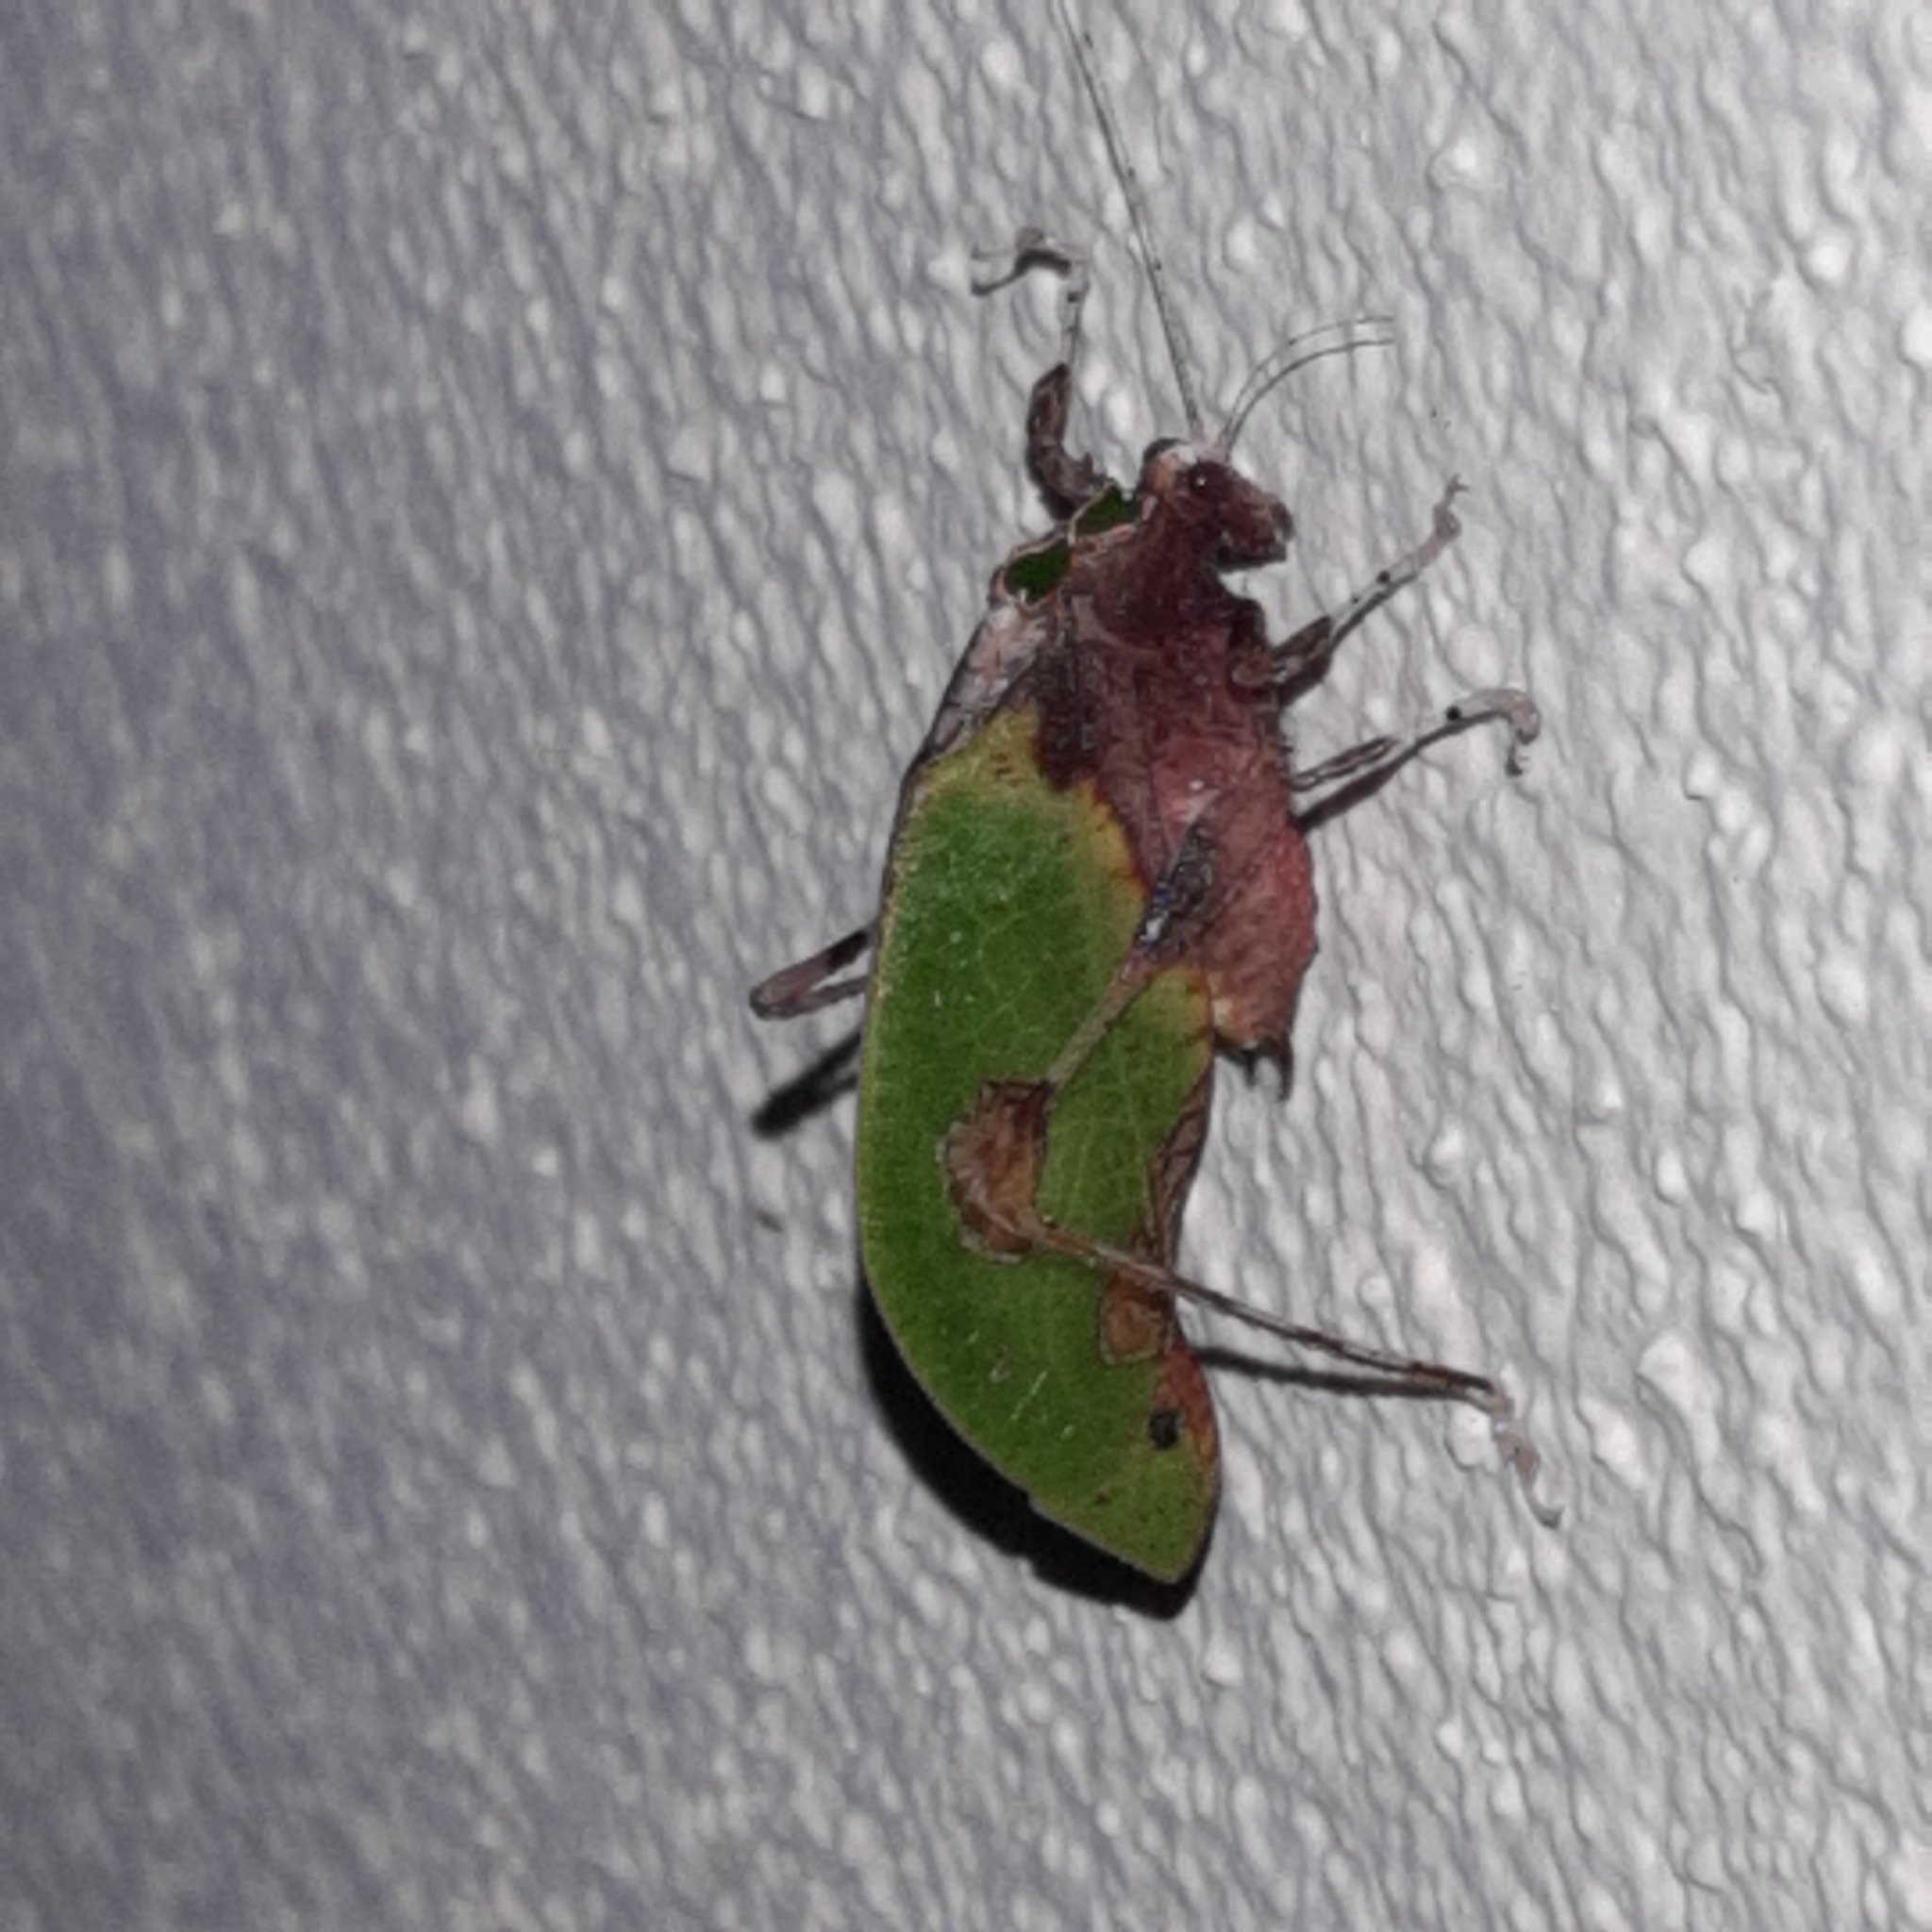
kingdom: Animalia
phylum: Arthropoda
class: Insecta
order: Orthoptera
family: Tettigoniidae
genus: Pycnopalpa
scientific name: Pycnopalpa bicordata
